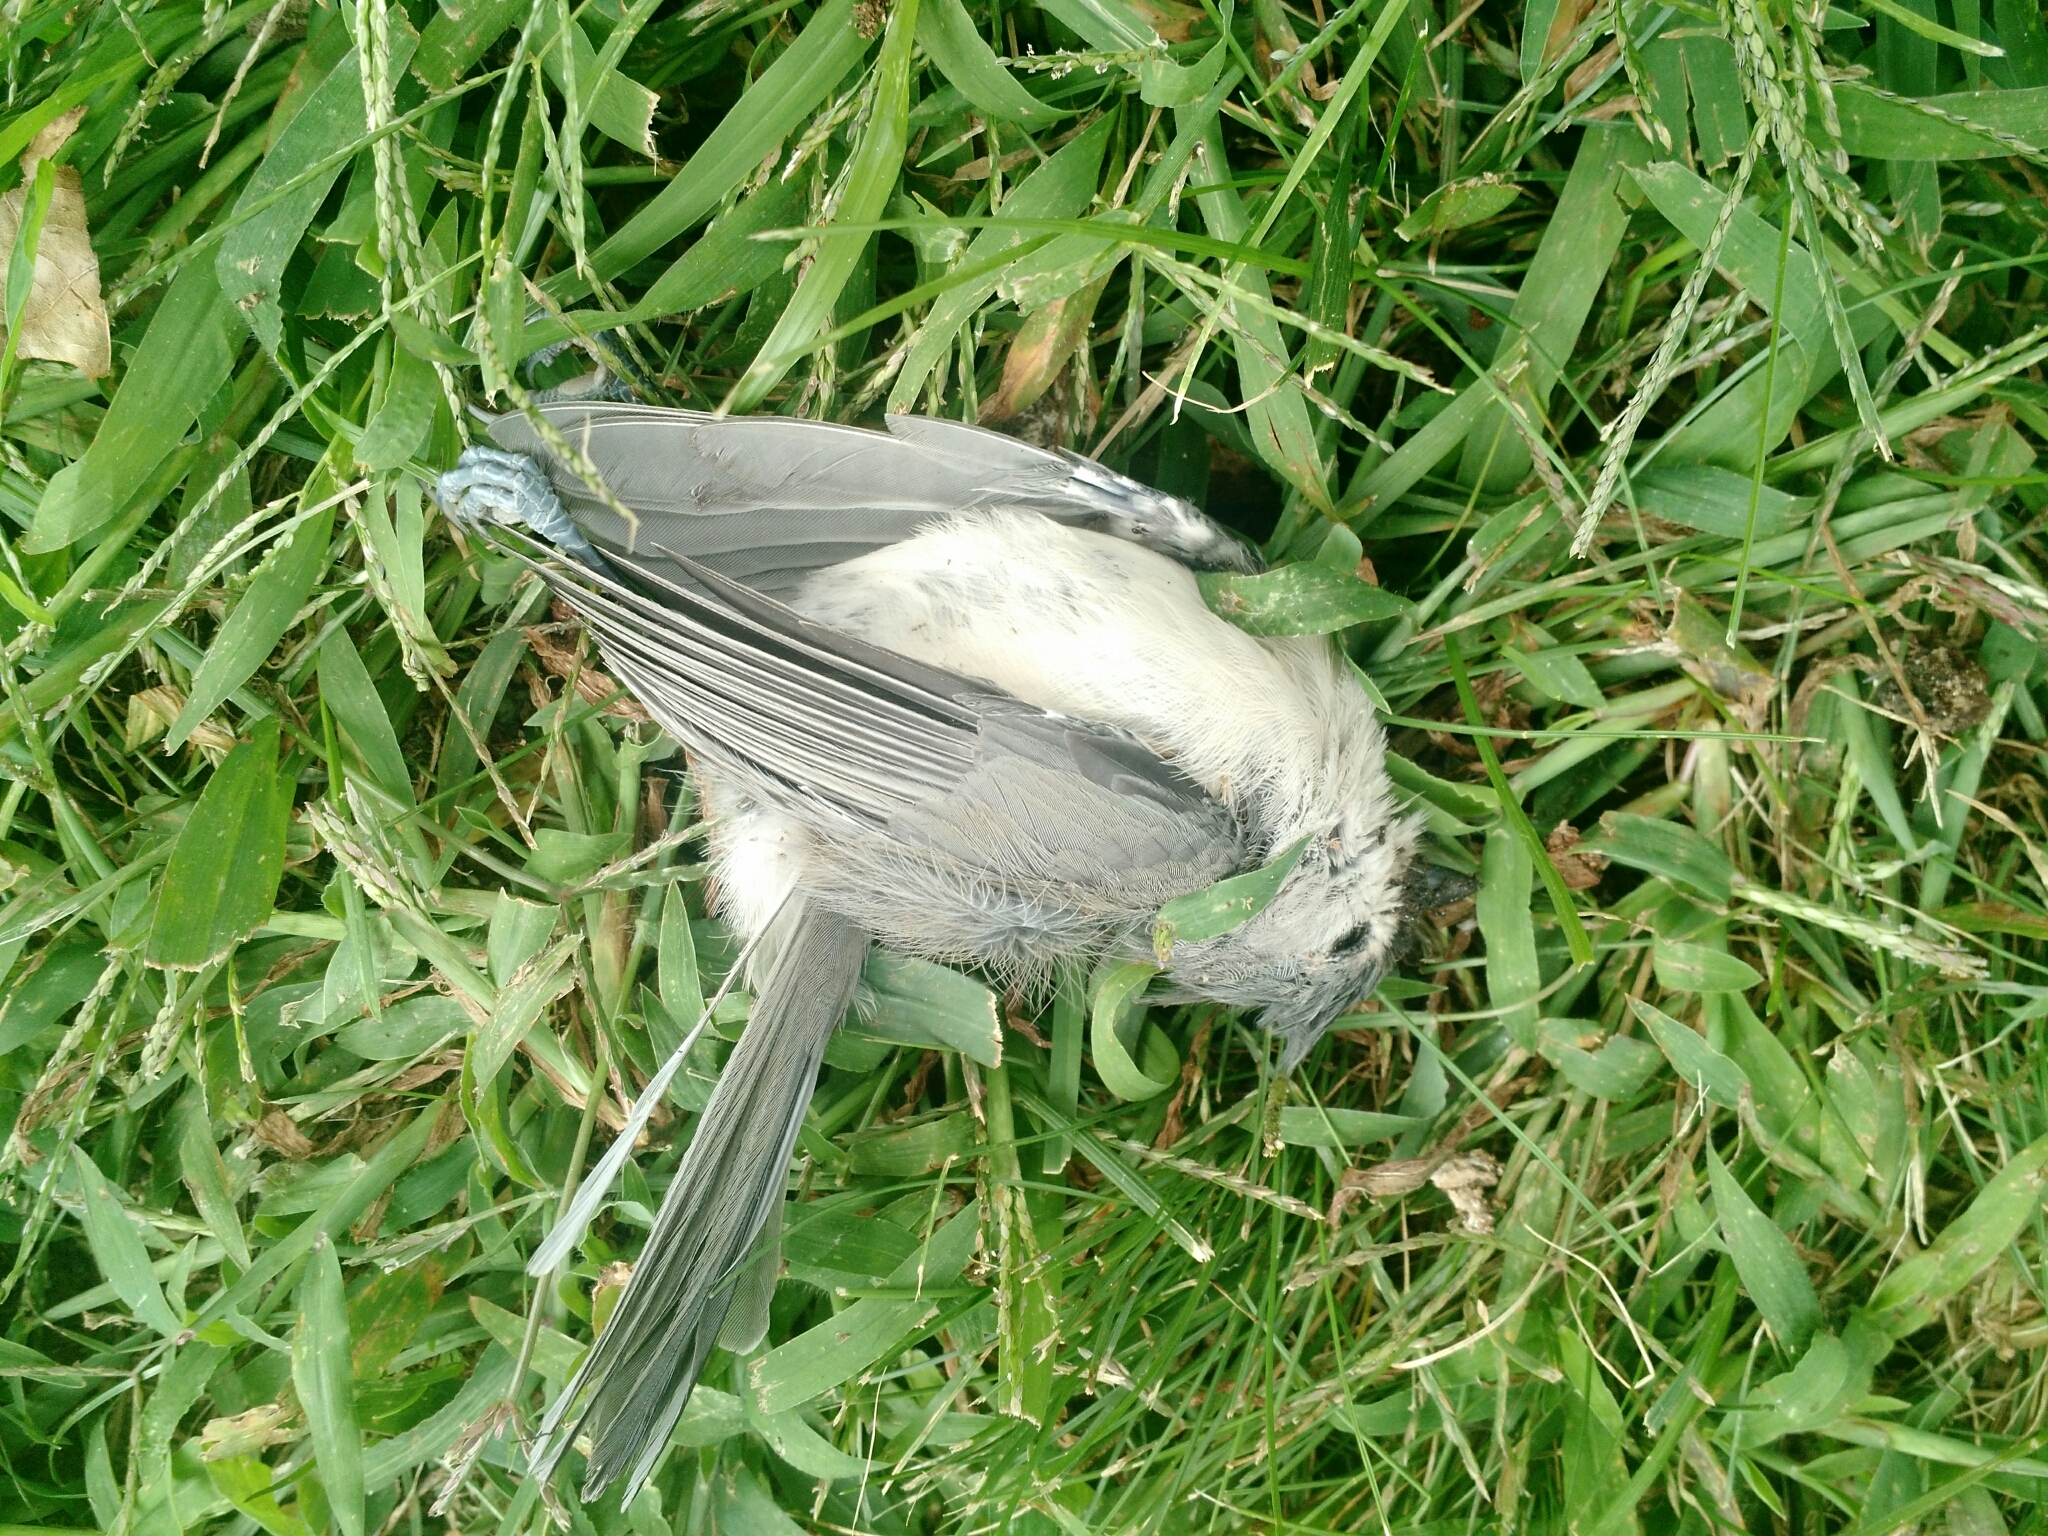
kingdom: Animalia
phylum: Chordata
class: Aves
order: Passeriformes
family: Paridae
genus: Baeolophus
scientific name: Baeolophus bicolor
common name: Tufted titmouse
